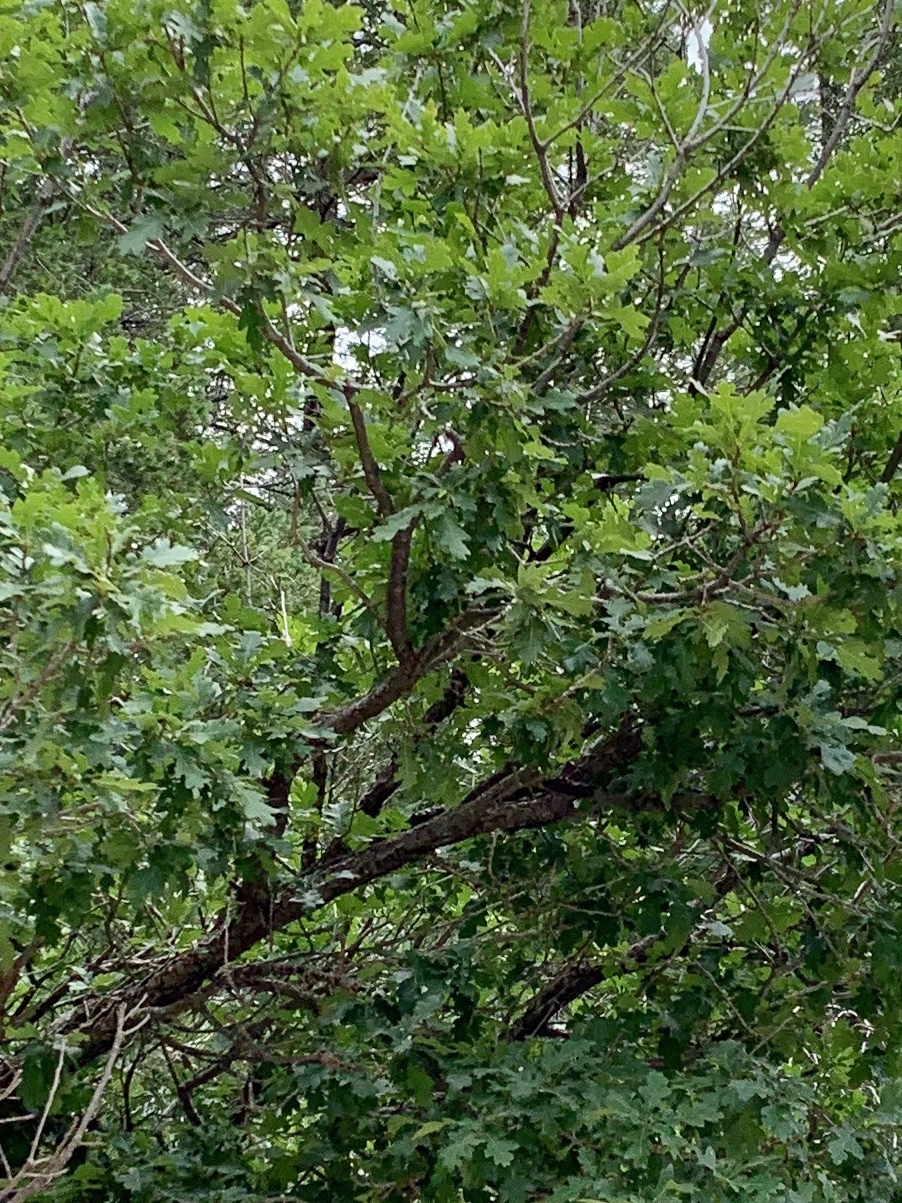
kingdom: Plantae
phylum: Tracheophyta
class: Magnoliopsida
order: Fagales
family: Fagaceae
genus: Quercus
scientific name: Quercus gambelii
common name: Gambel oak
